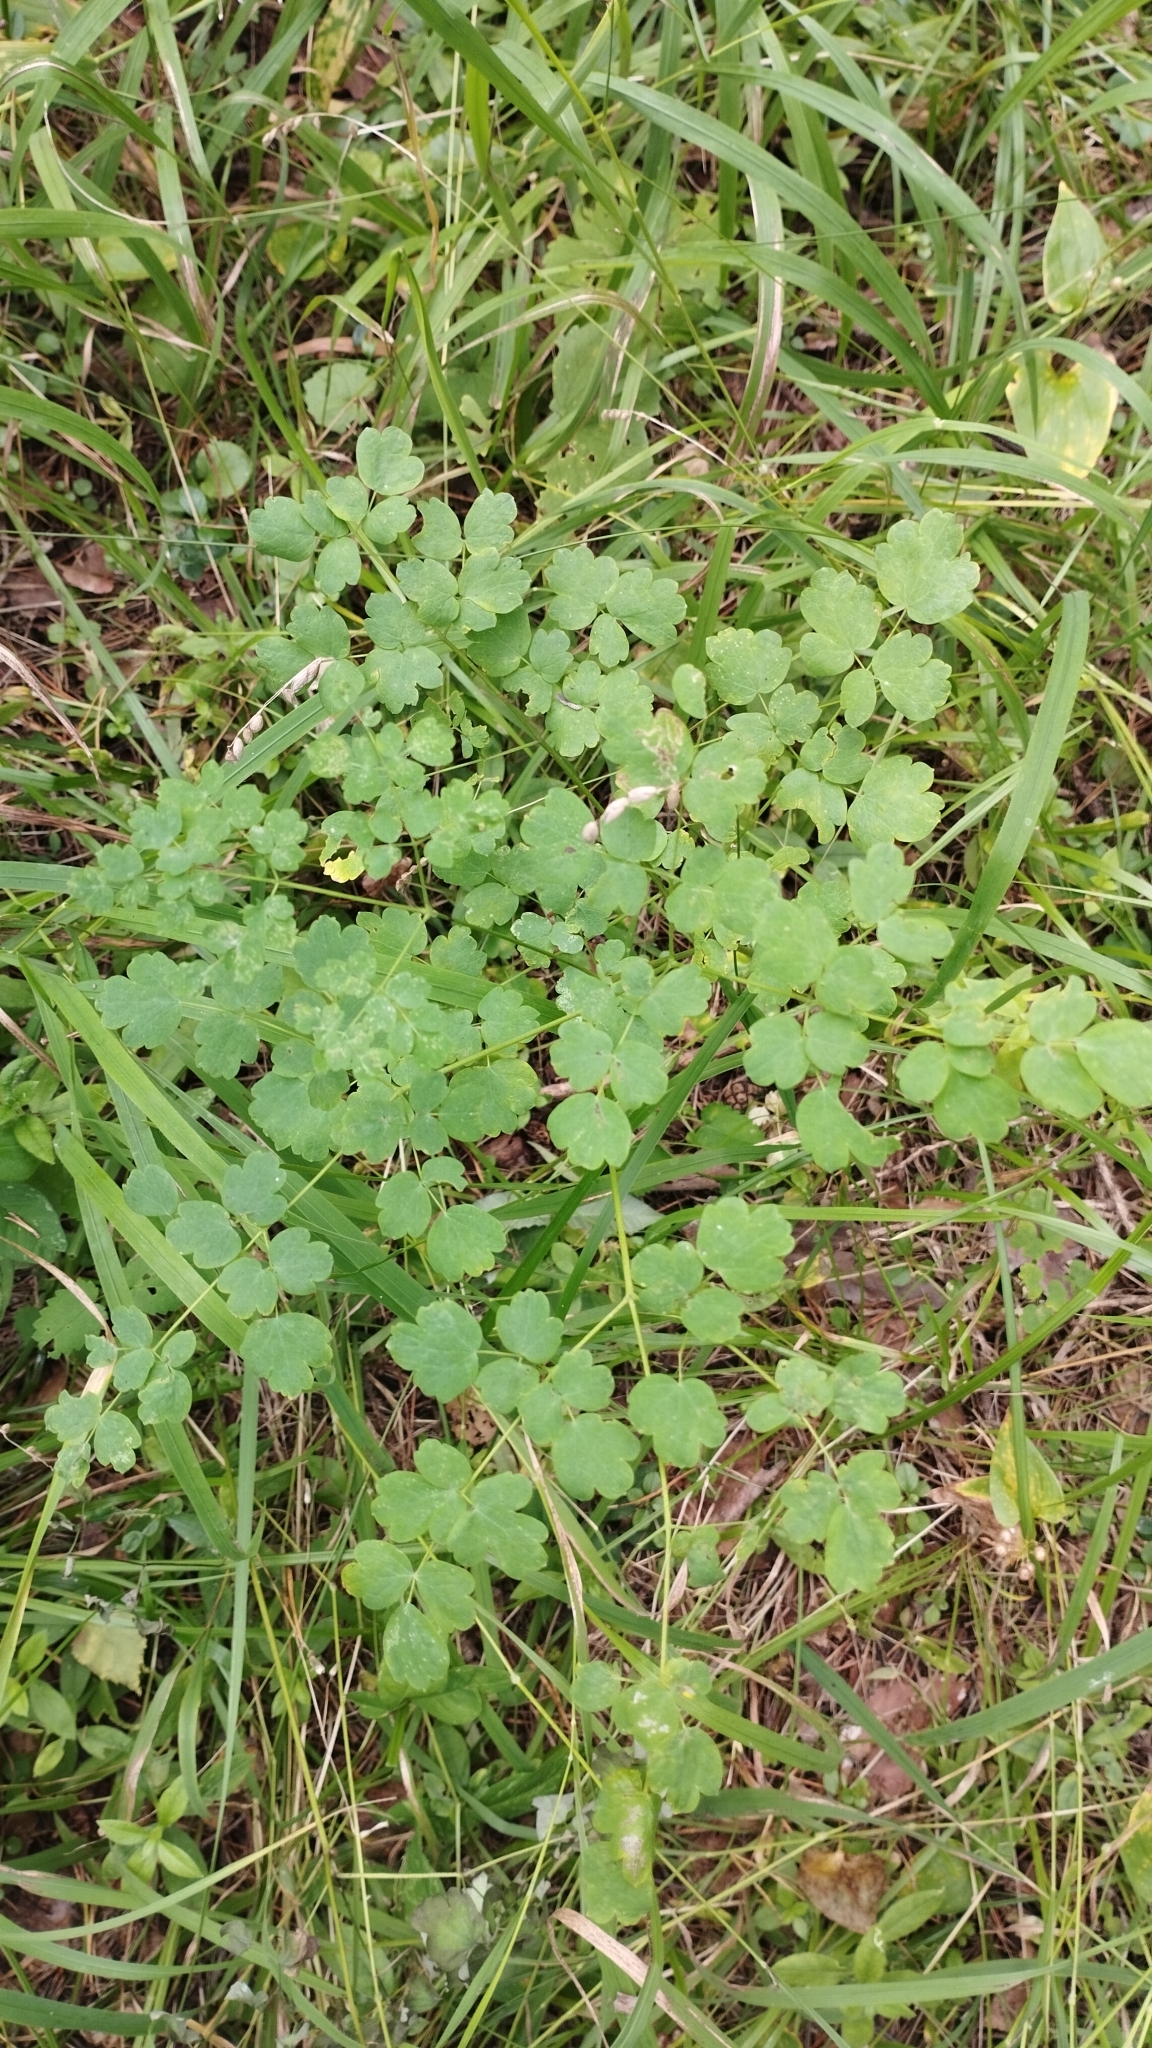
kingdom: Plantae
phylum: Tracheophyta
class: Magnoliopsida
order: Ranunculales
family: Ranunculaceae
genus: Thalictrum
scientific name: Thalictrum minus
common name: Lesser meadow-rue
